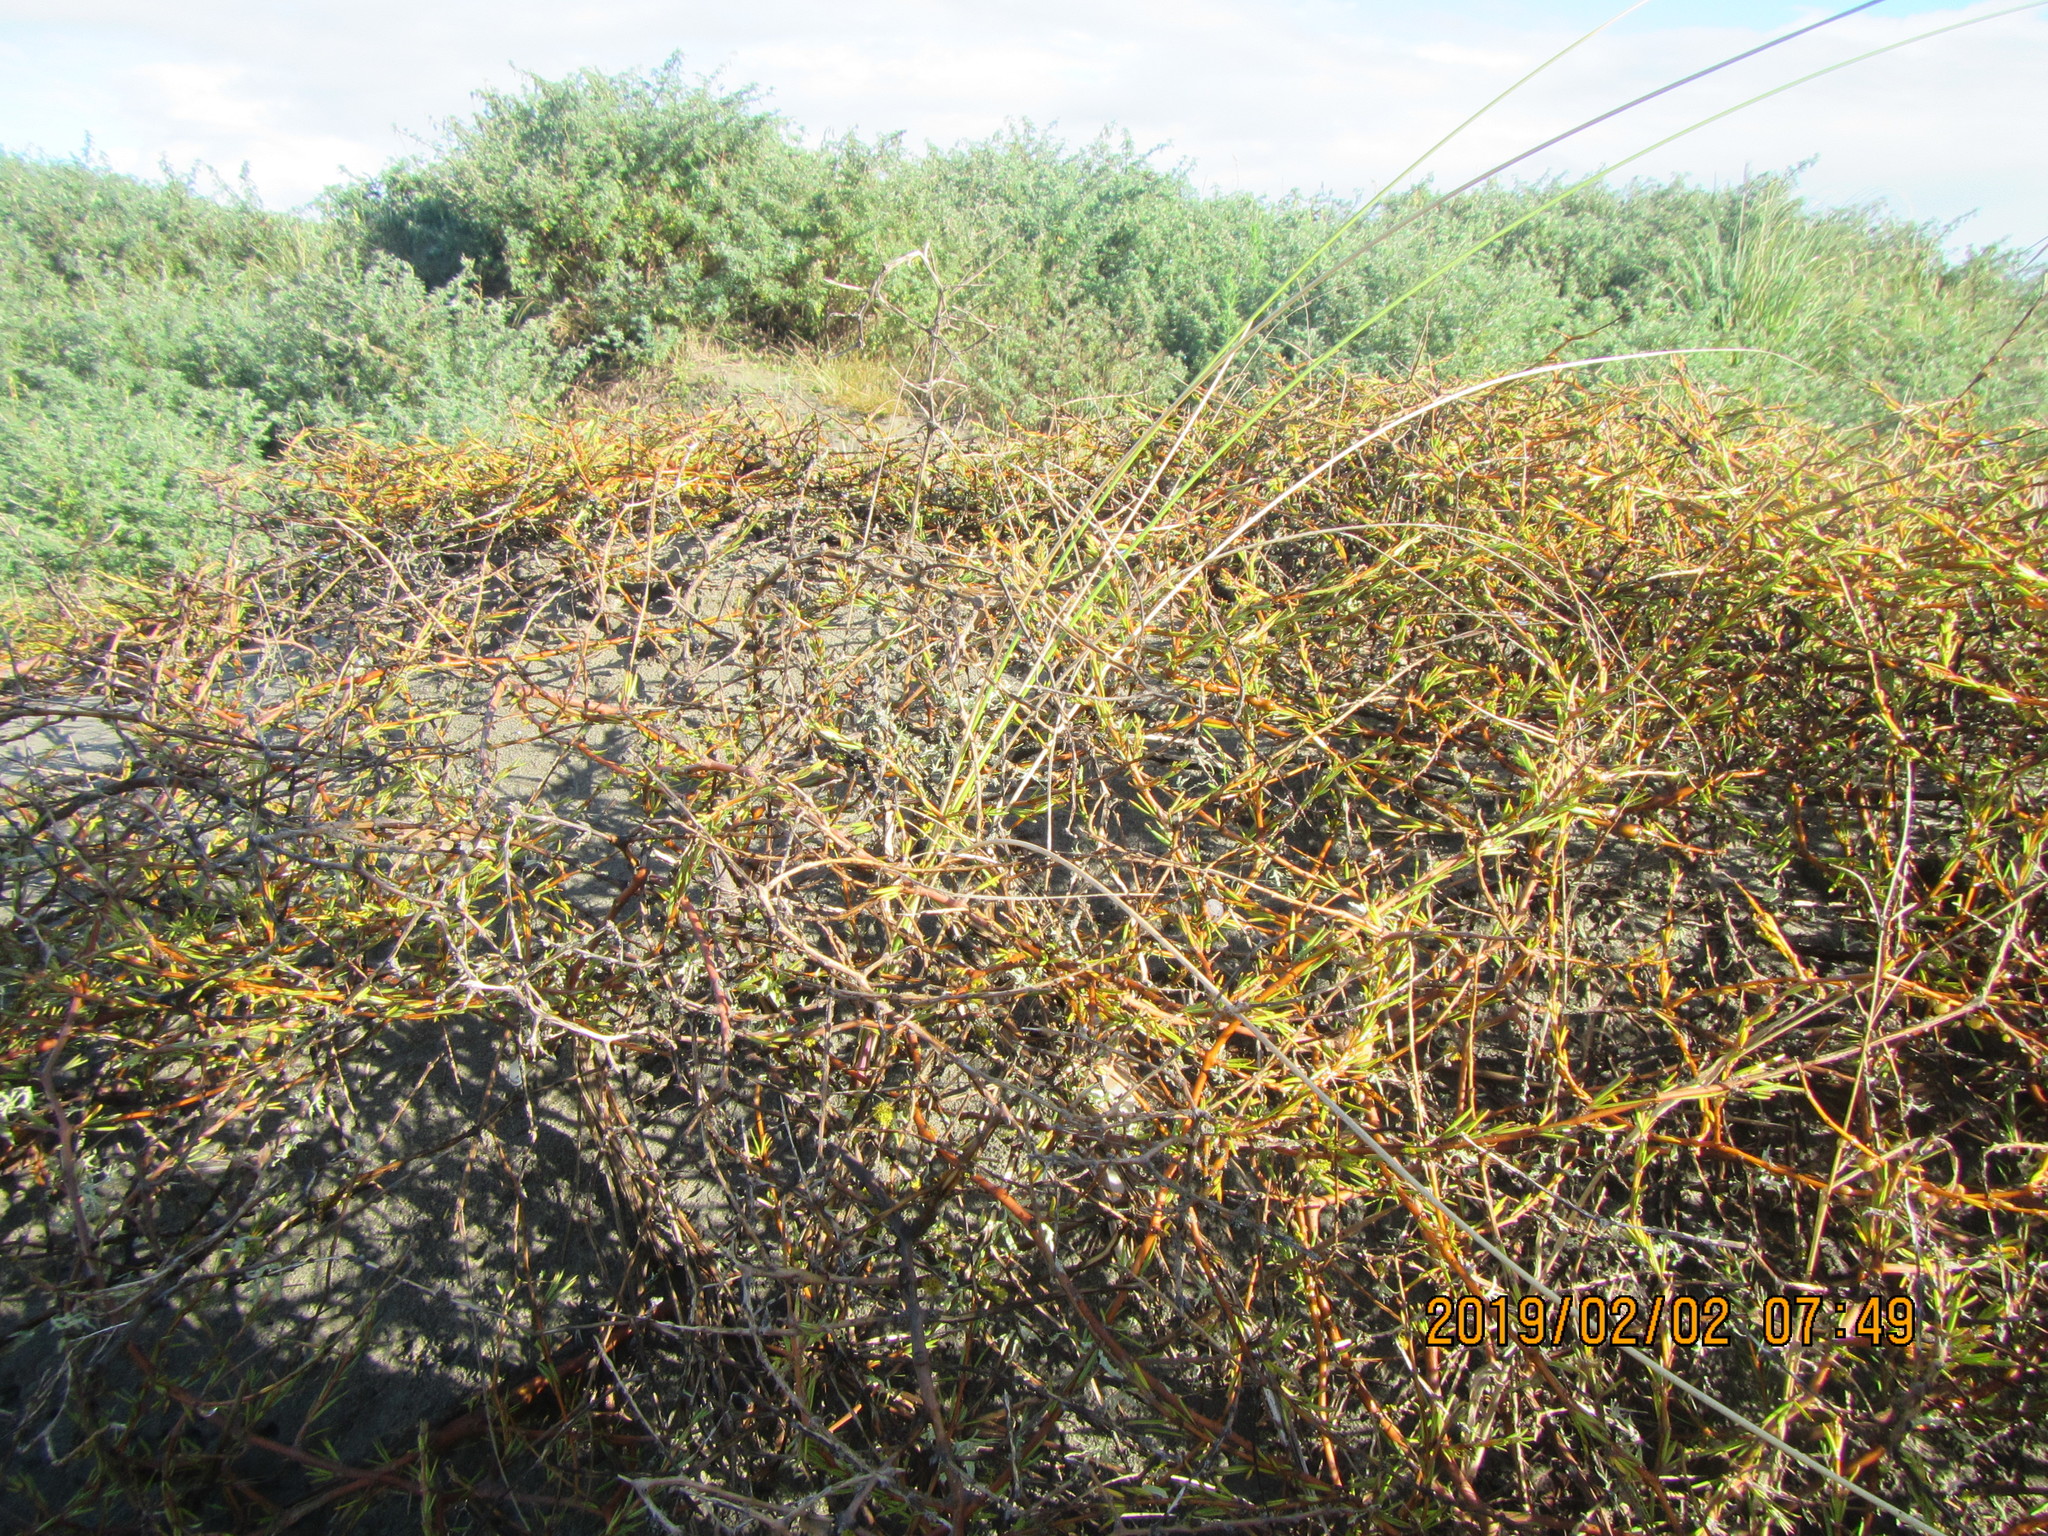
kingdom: Plantae
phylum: Tracheophyta
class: Magnoliopsida
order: Gentianales
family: Rubiaceae
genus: Coprosma
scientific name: Coprosma acerosa
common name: Sand coprosma
